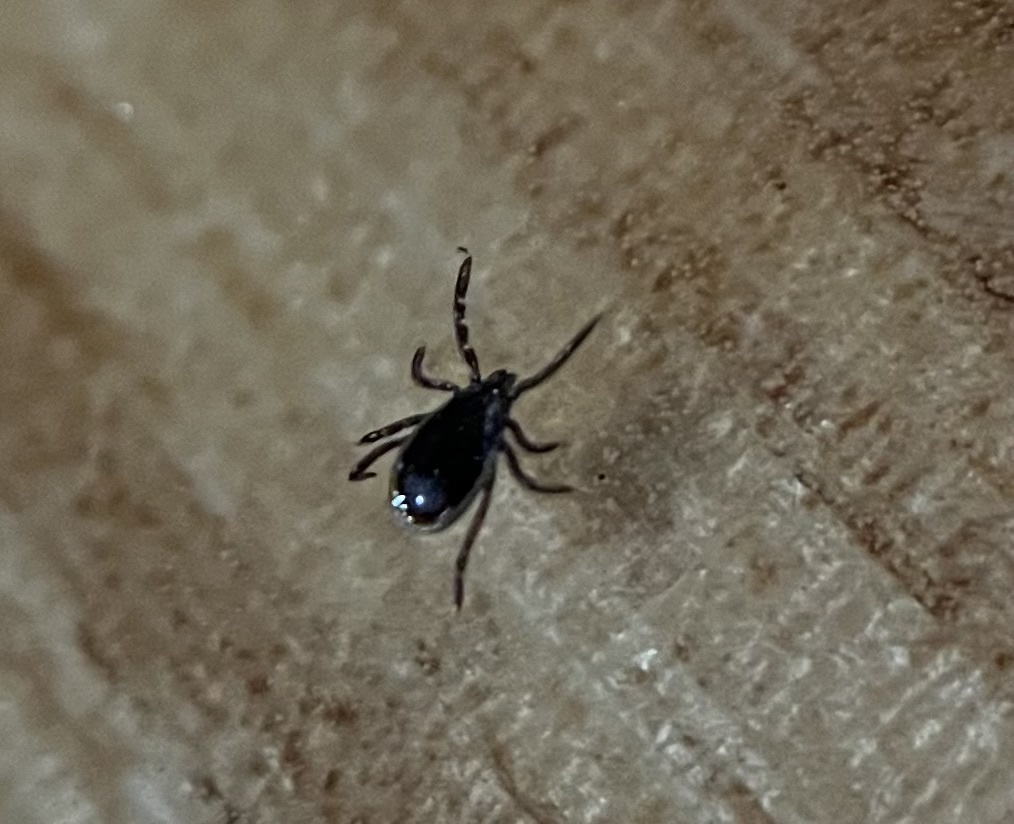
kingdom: Animalia
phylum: Arthropoda
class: Arachnida
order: Ixodida
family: Ixodidae
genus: Ixodes
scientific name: Ixodes scapularis
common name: Black legged tick
